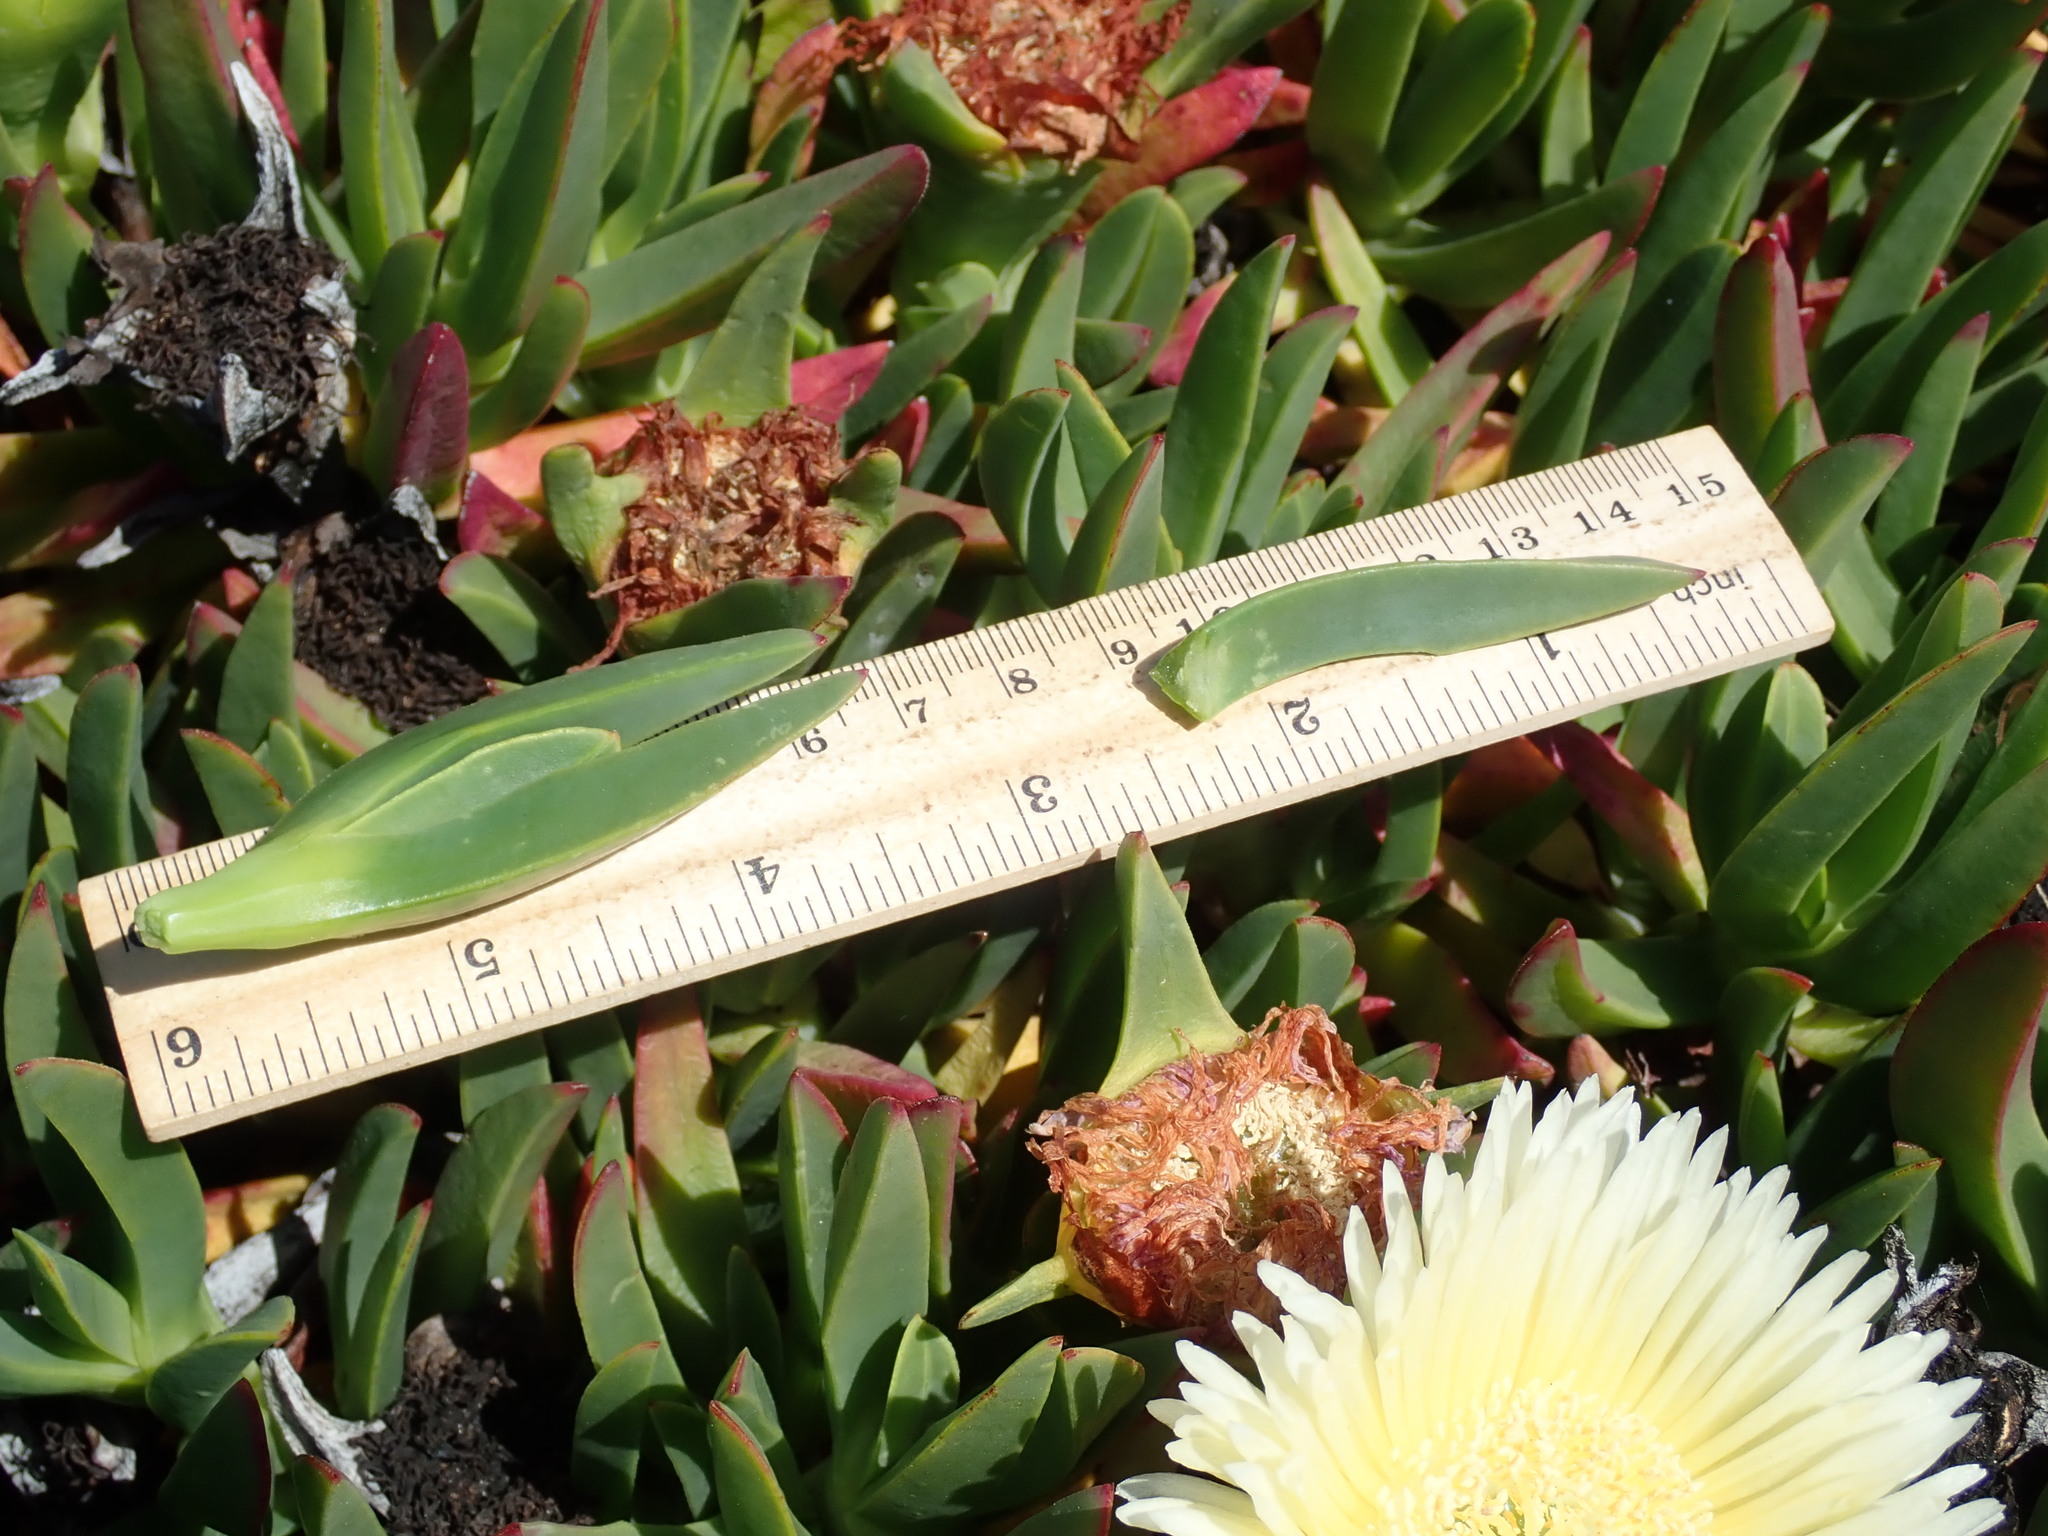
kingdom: Plantae
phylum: Tracheophyta
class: Magnoliopsida
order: Caryophyllales
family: Aizoaceae
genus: Carpobrotus
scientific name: Carpobrotus edulis
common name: Hottentot-fig
